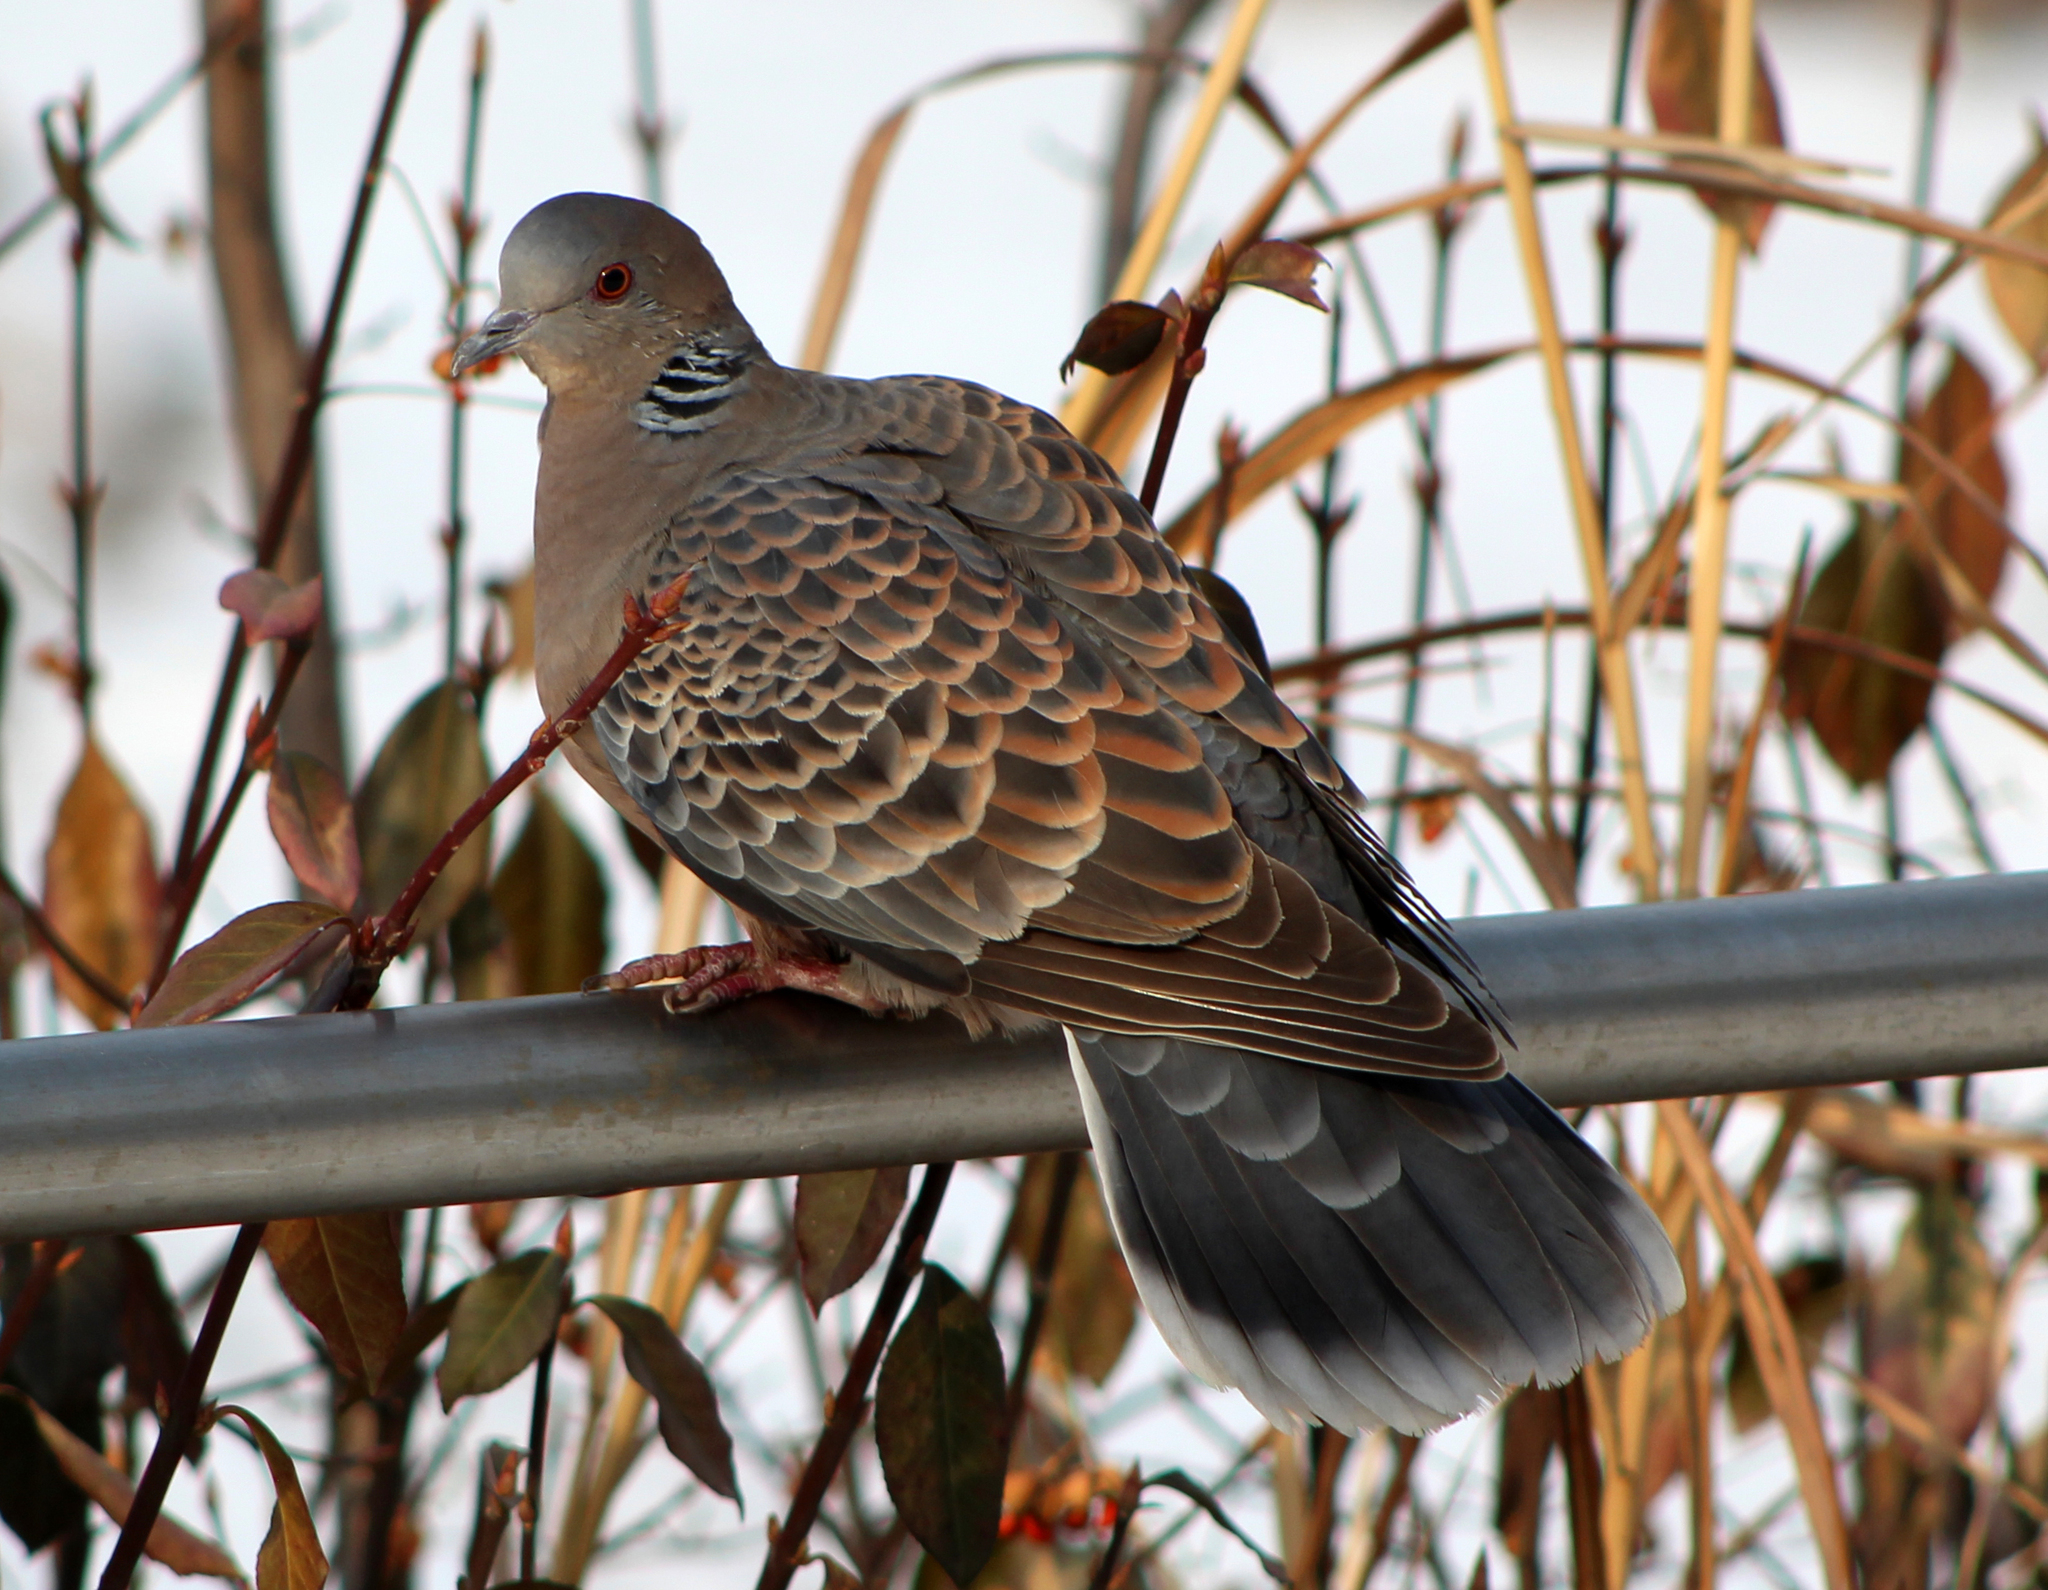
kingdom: Animalia
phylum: Chordata
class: Aves
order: Columbiformes
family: Columbidae
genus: Streptopelia
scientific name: Streptopelia orientalis
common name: Oriental turtle dove
